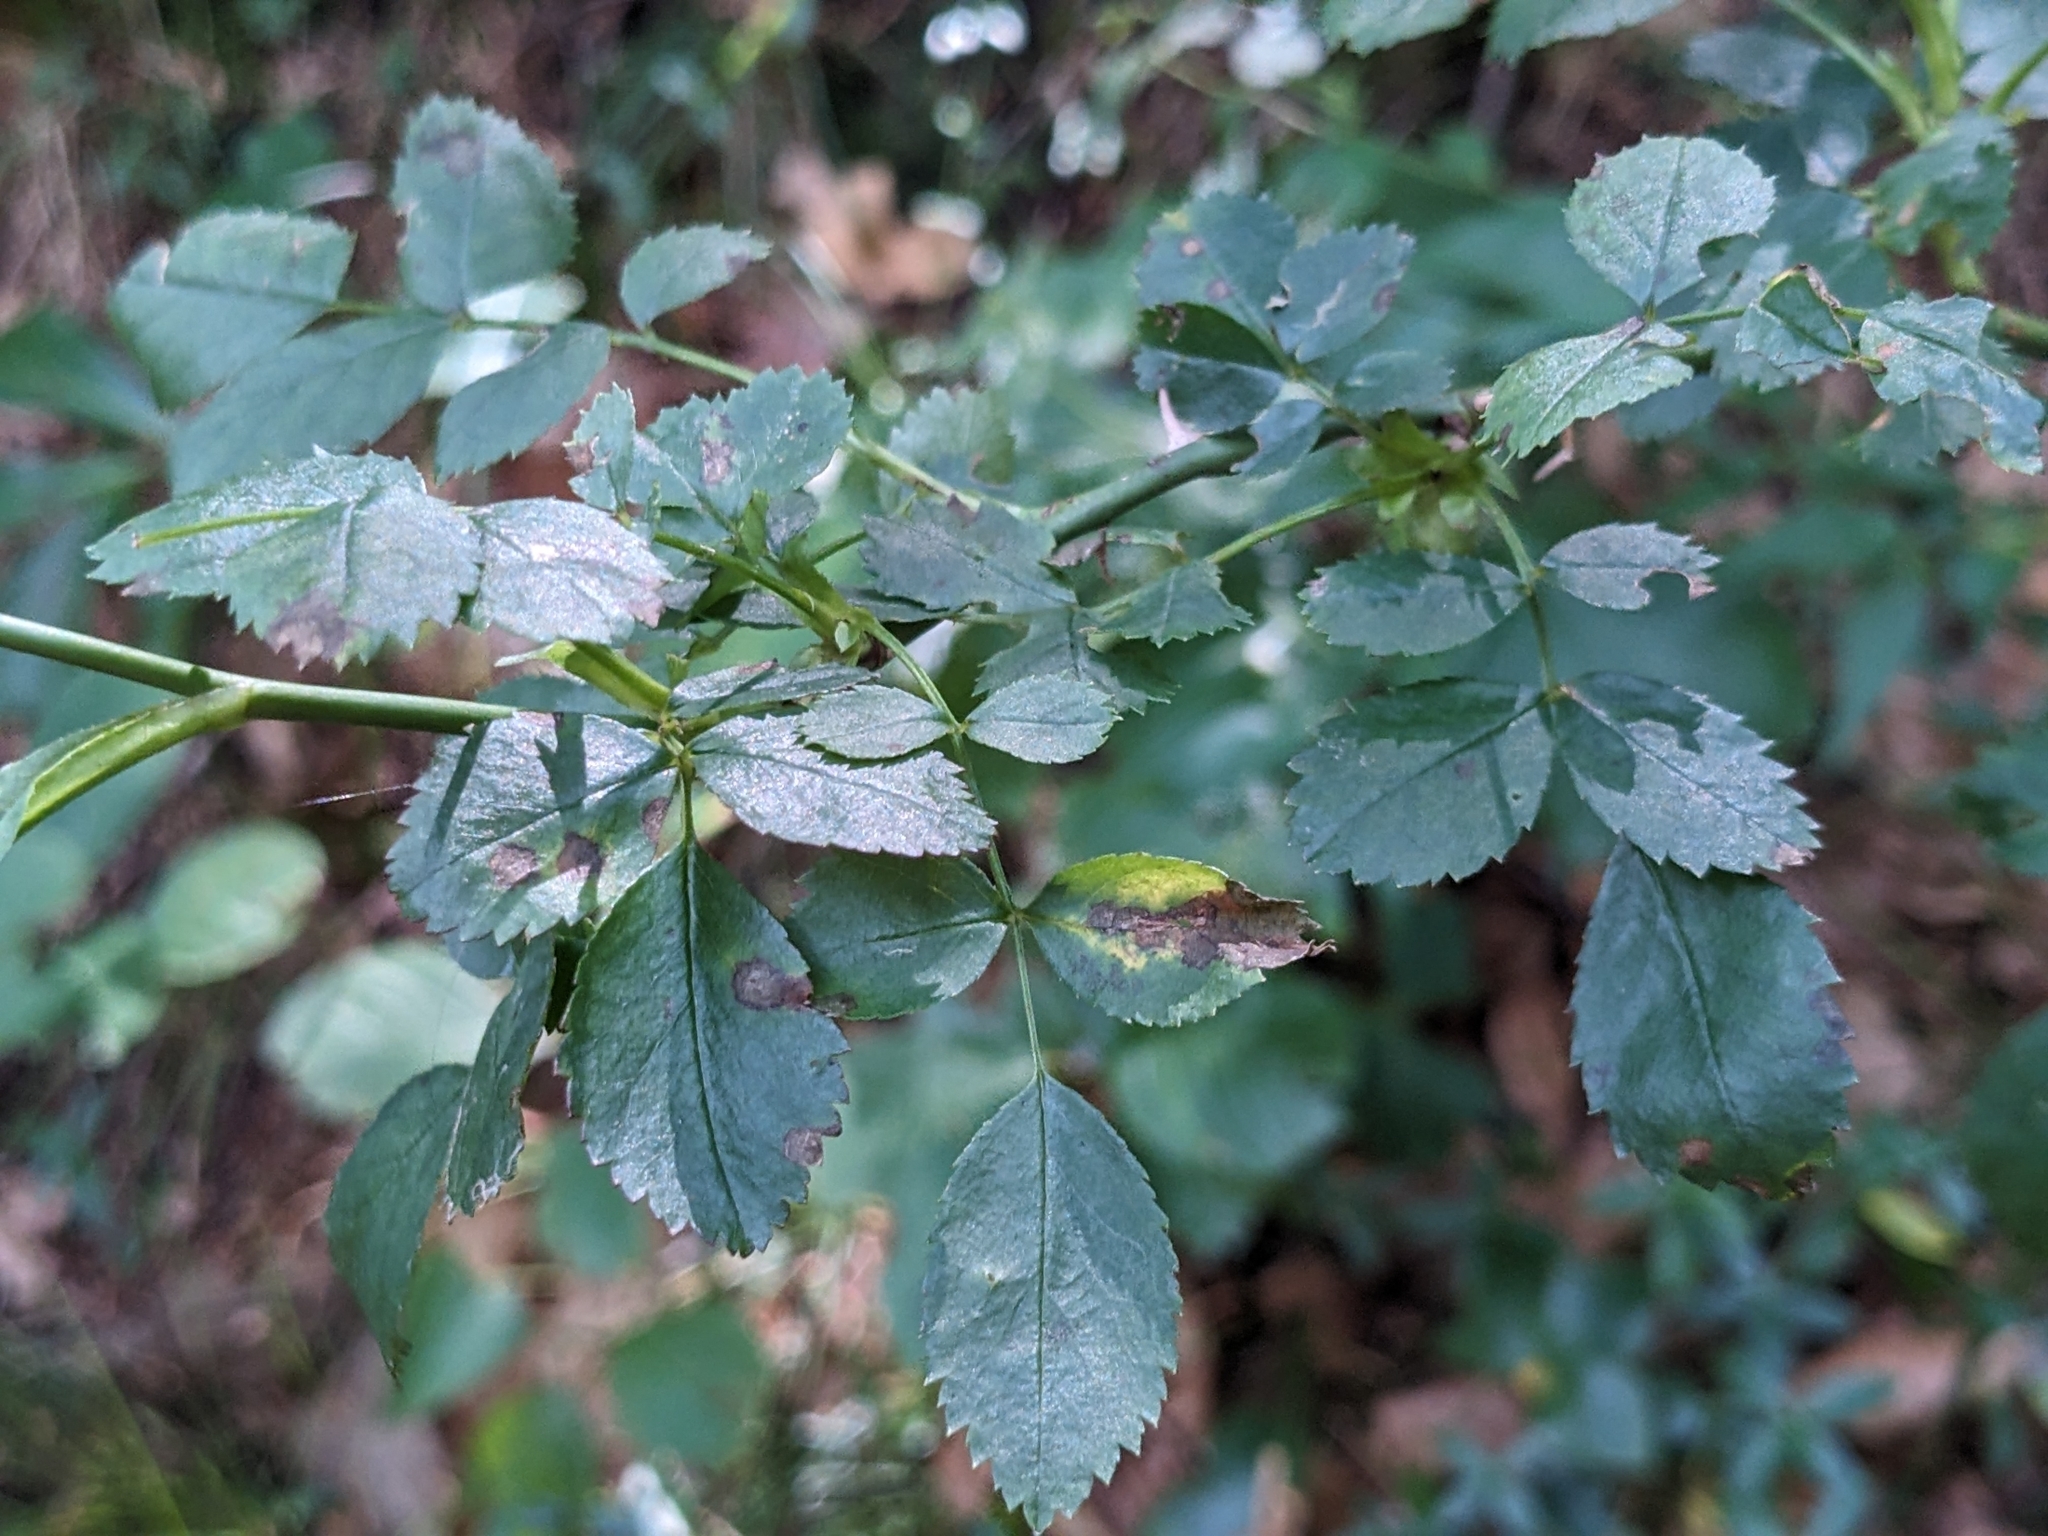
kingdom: Plantae
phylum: Tracheophyta
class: Magnoliopsida
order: Rosales
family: Rosaceae
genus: Rosa
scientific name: Rosa pendulina
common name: Alpine rose
